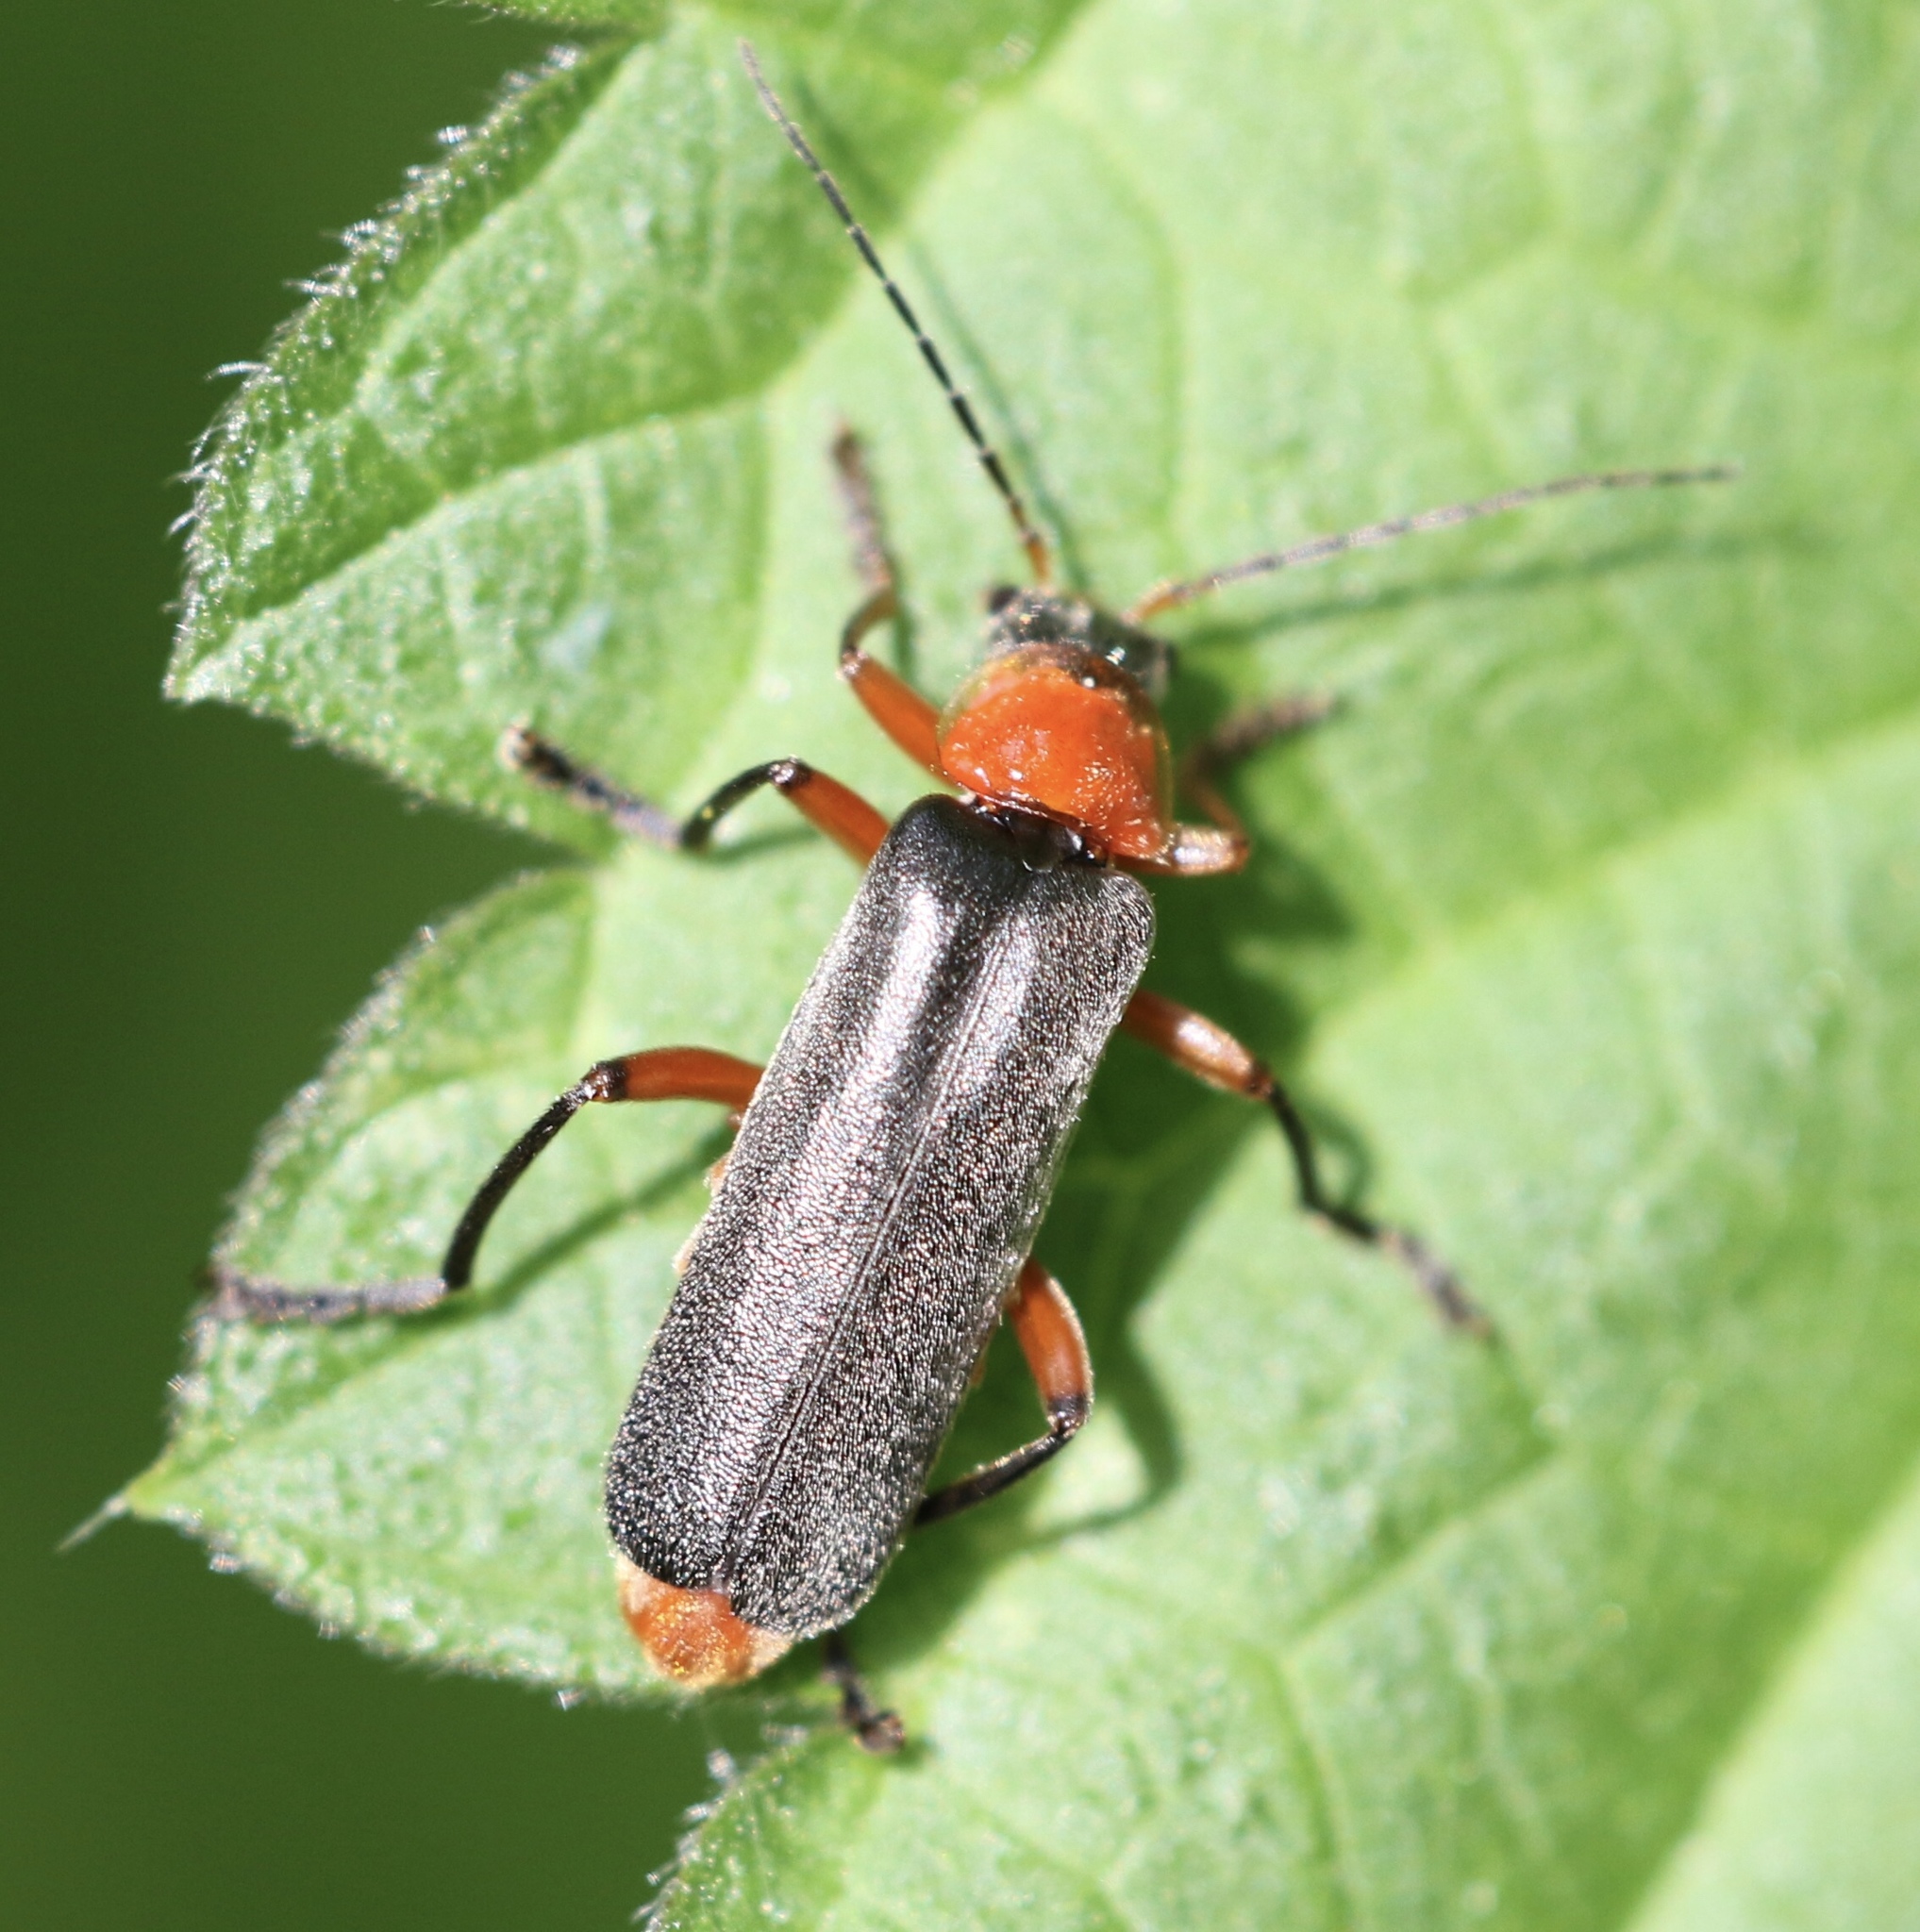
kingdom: Animalia
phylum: Arthropoda
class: Insecta
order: Coleoptera
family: Cantharidae
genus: Cantharis
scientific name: Cantharis pellucida
